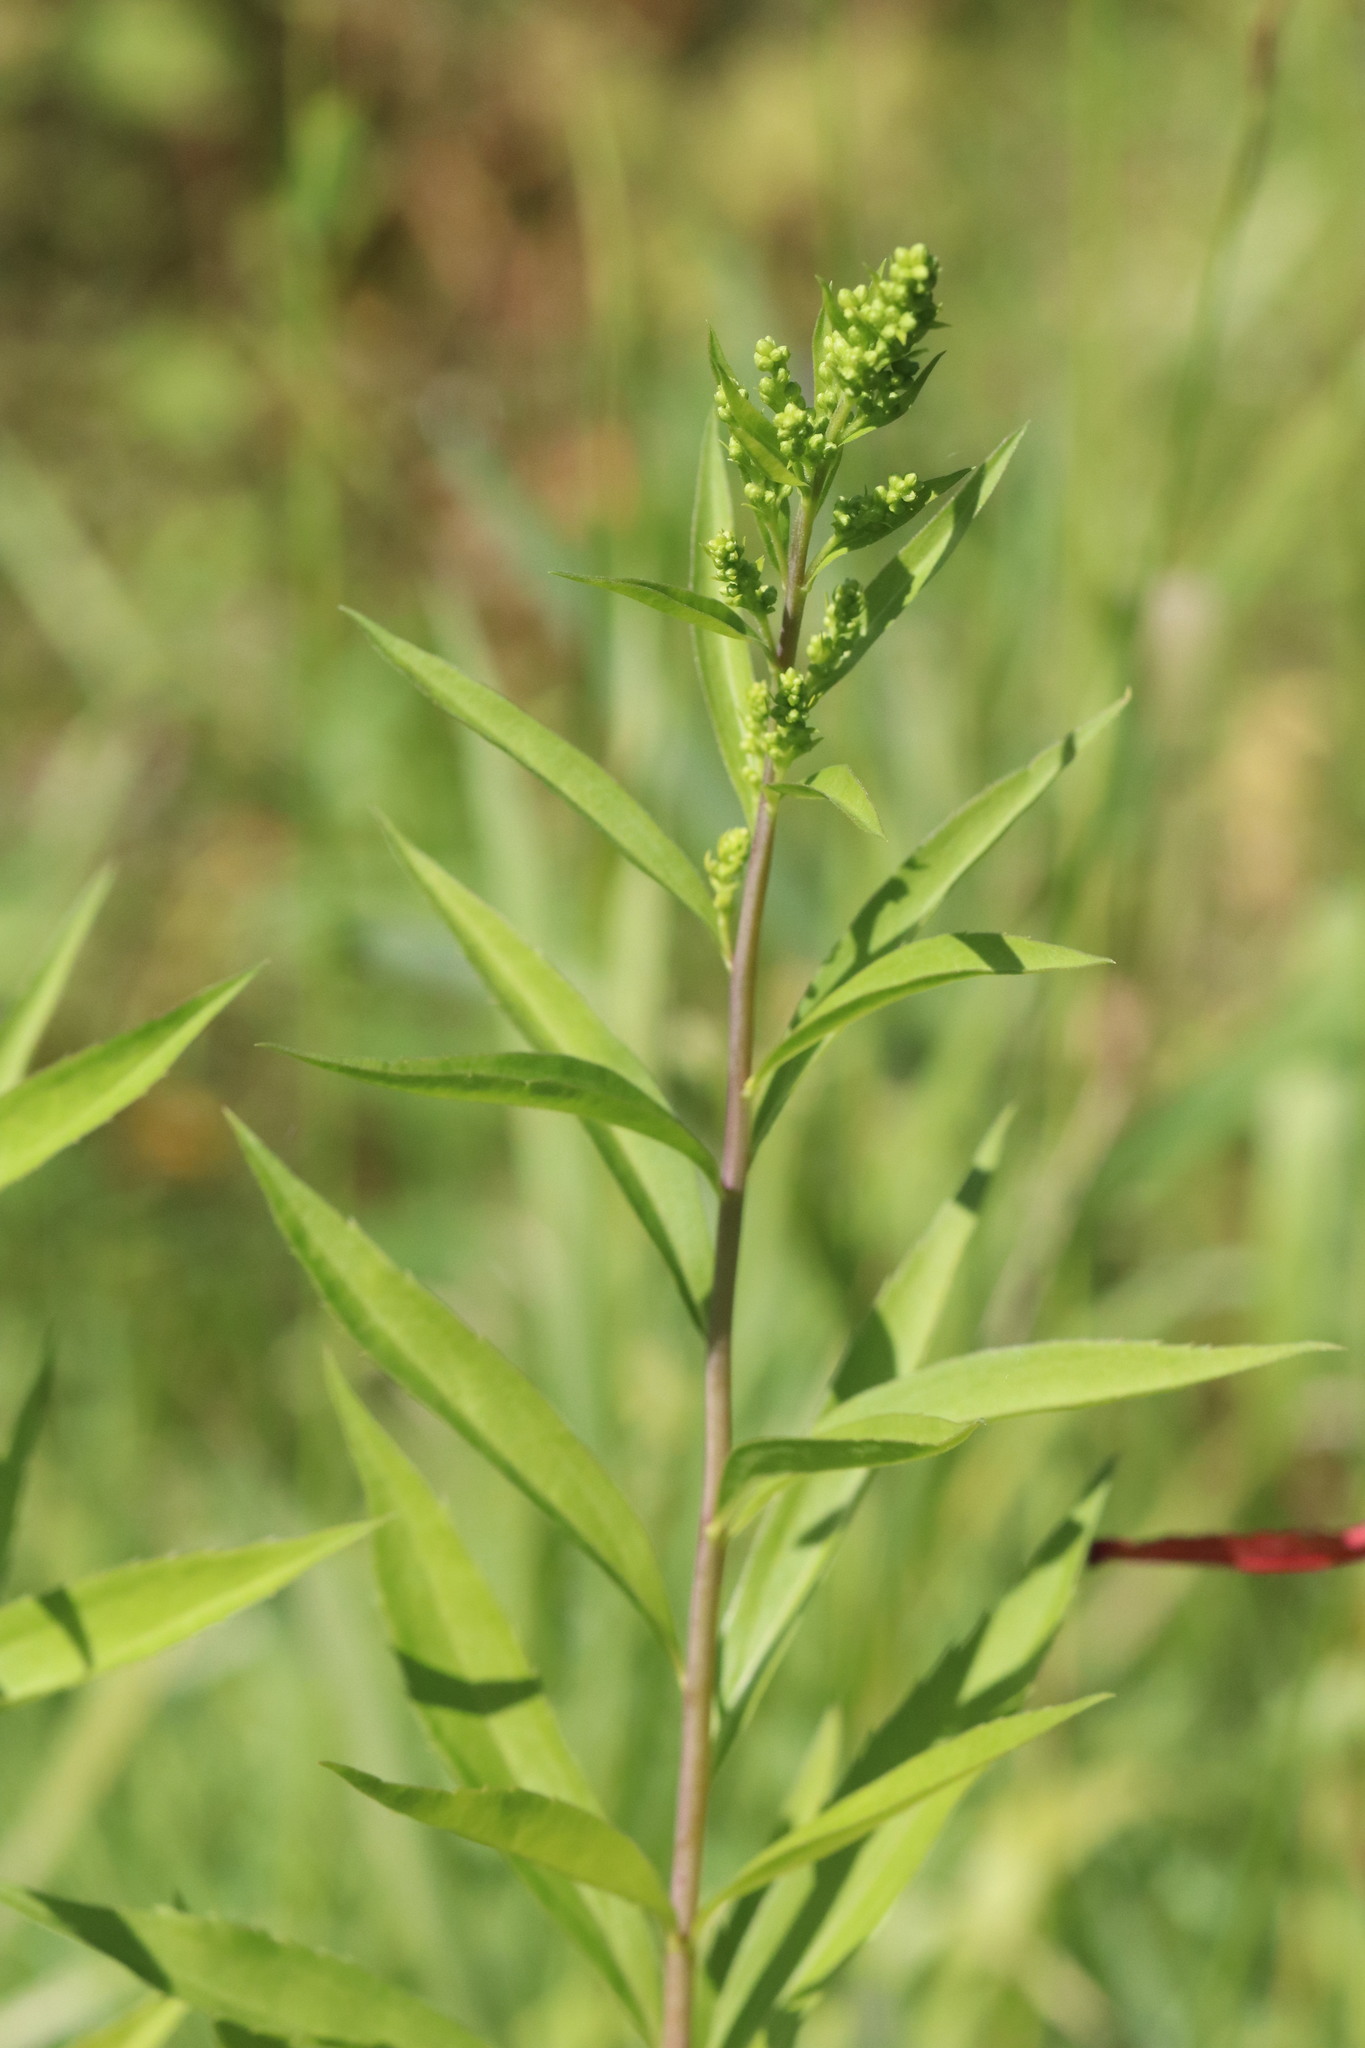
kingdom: Plantae
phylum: Tracheophyta
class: Magnoliopsida
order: Asterales
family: Asteraceae
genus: Solidago
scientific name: Solidago gigantea
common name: Giant goldenrod
